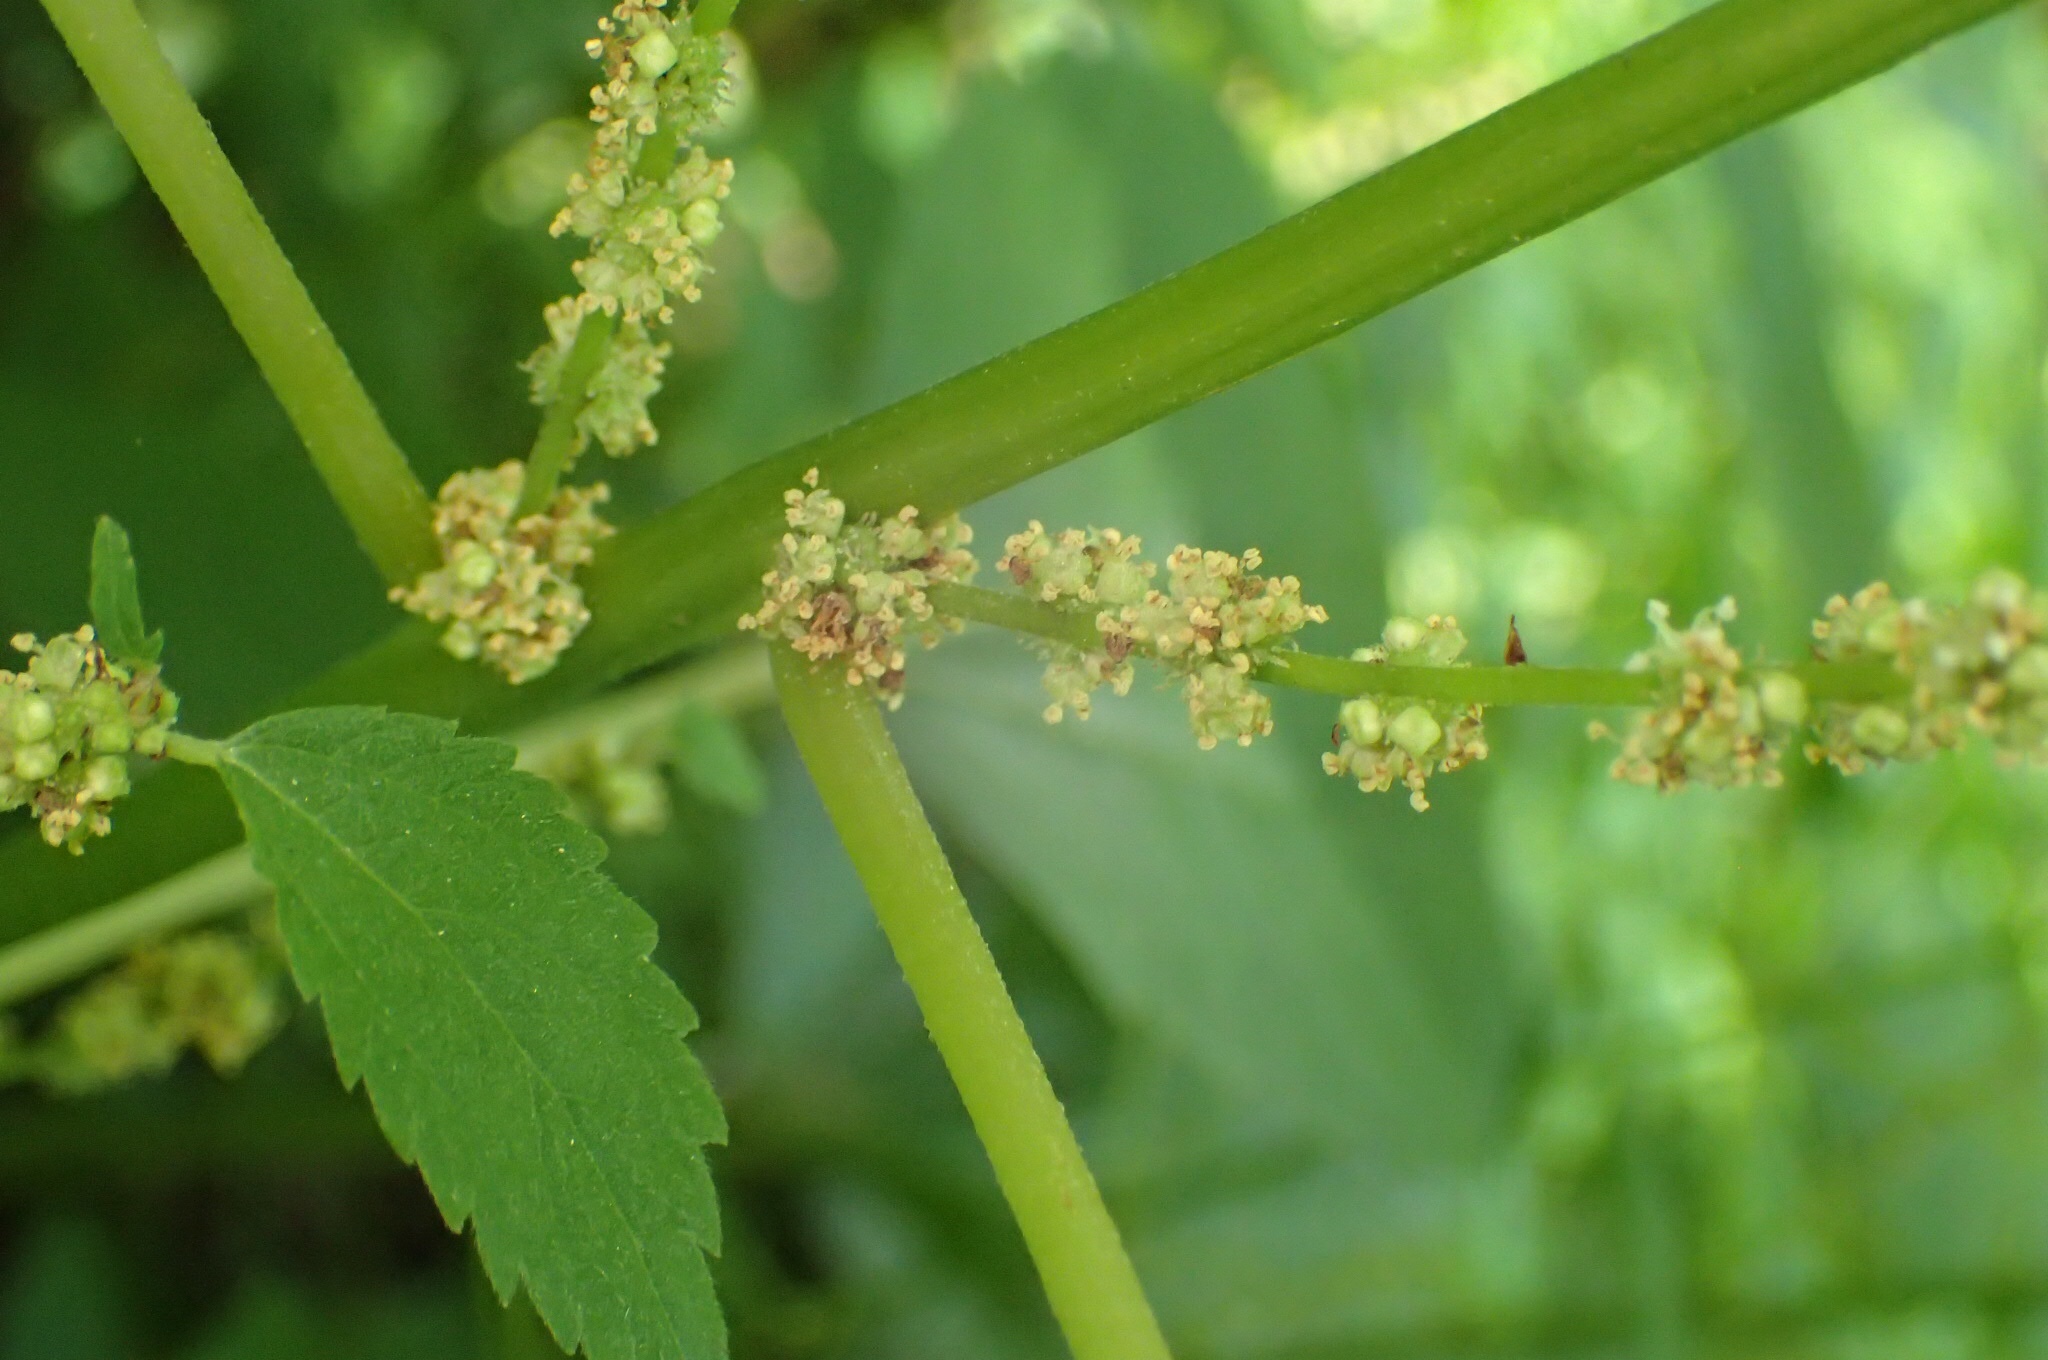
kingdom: Plantae
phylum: Tracheophyta
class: Magnoliopsida
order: Rosales
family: Urticaceae
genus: Boehmeria
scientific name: Boehmeria cylindrica
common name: Bog-hemp
